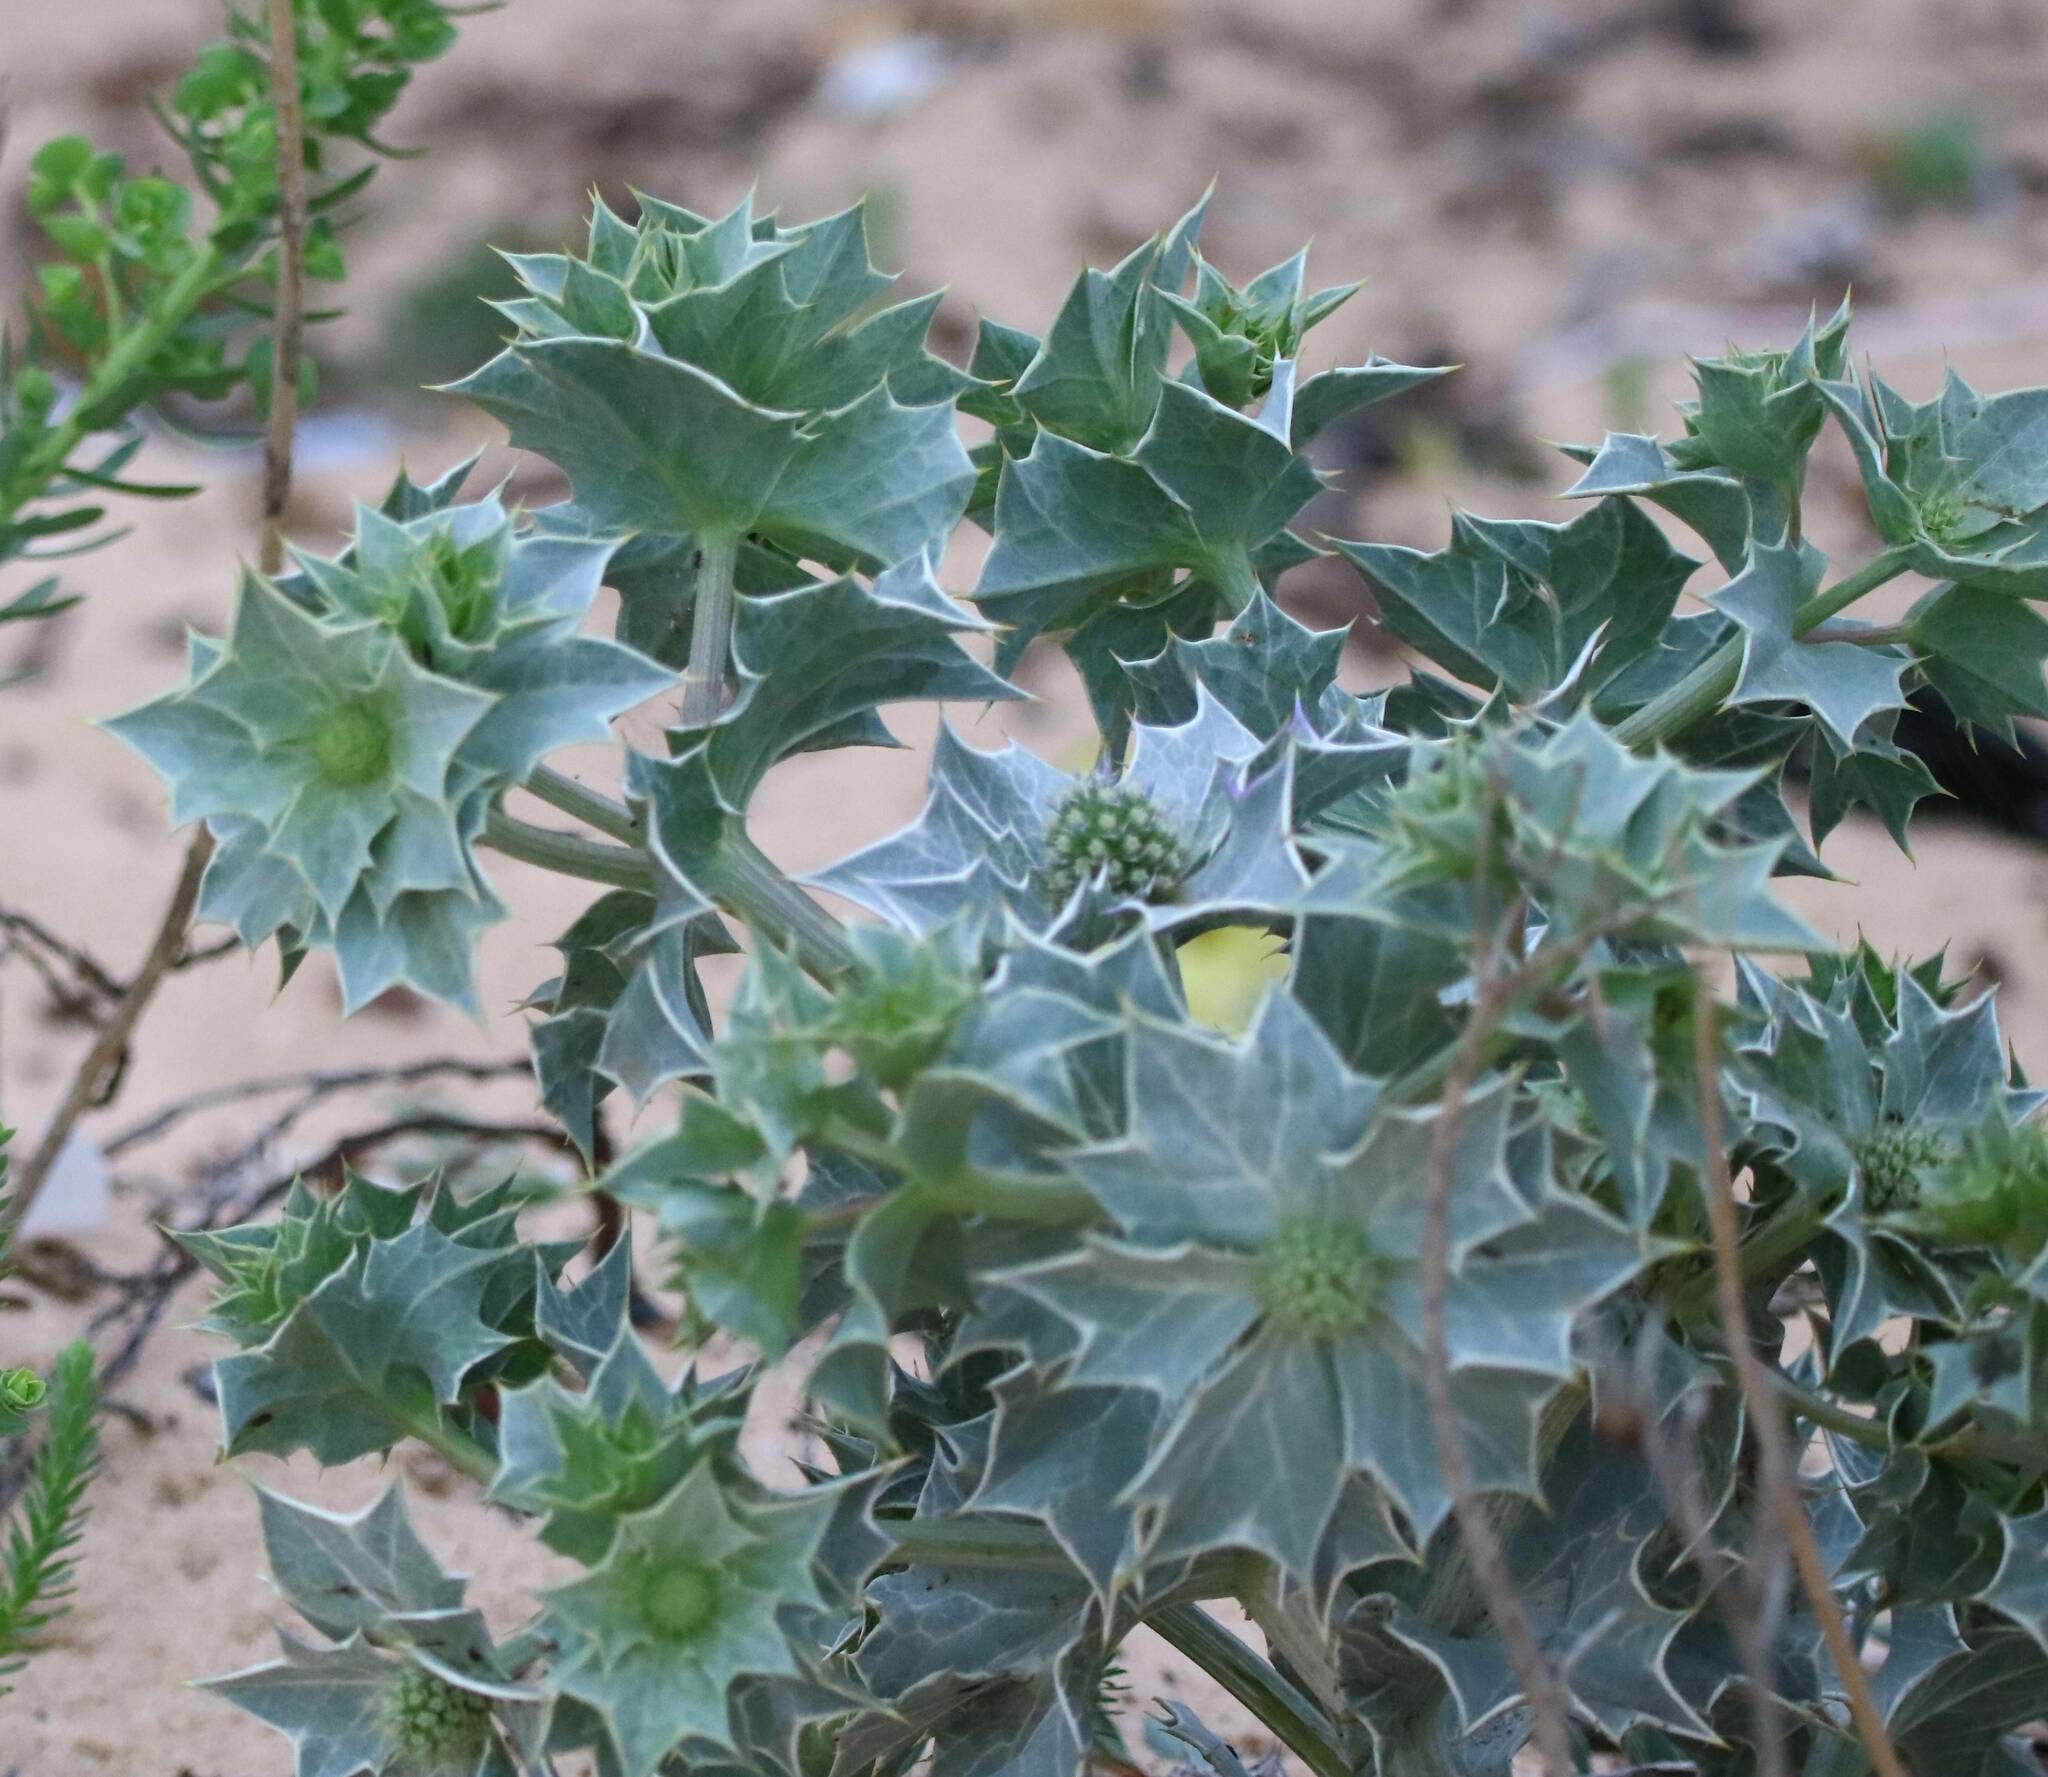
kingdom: Plantae
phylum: Tracheophyta
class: Magnoliopsida
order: Apiales
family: Apiaceae
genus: Eryngium
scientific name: Eryngium maritimum
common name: Sea-holly
